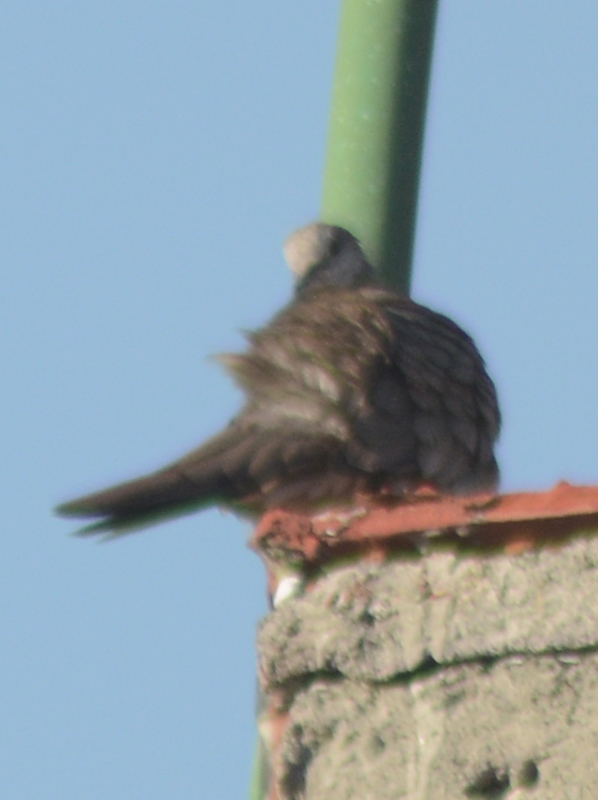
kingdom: Animalia
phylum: Chordata
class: Aves
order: Columbiformes
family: Columbidae
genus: Columbina
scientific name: Columbina inca
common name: Inca dove
